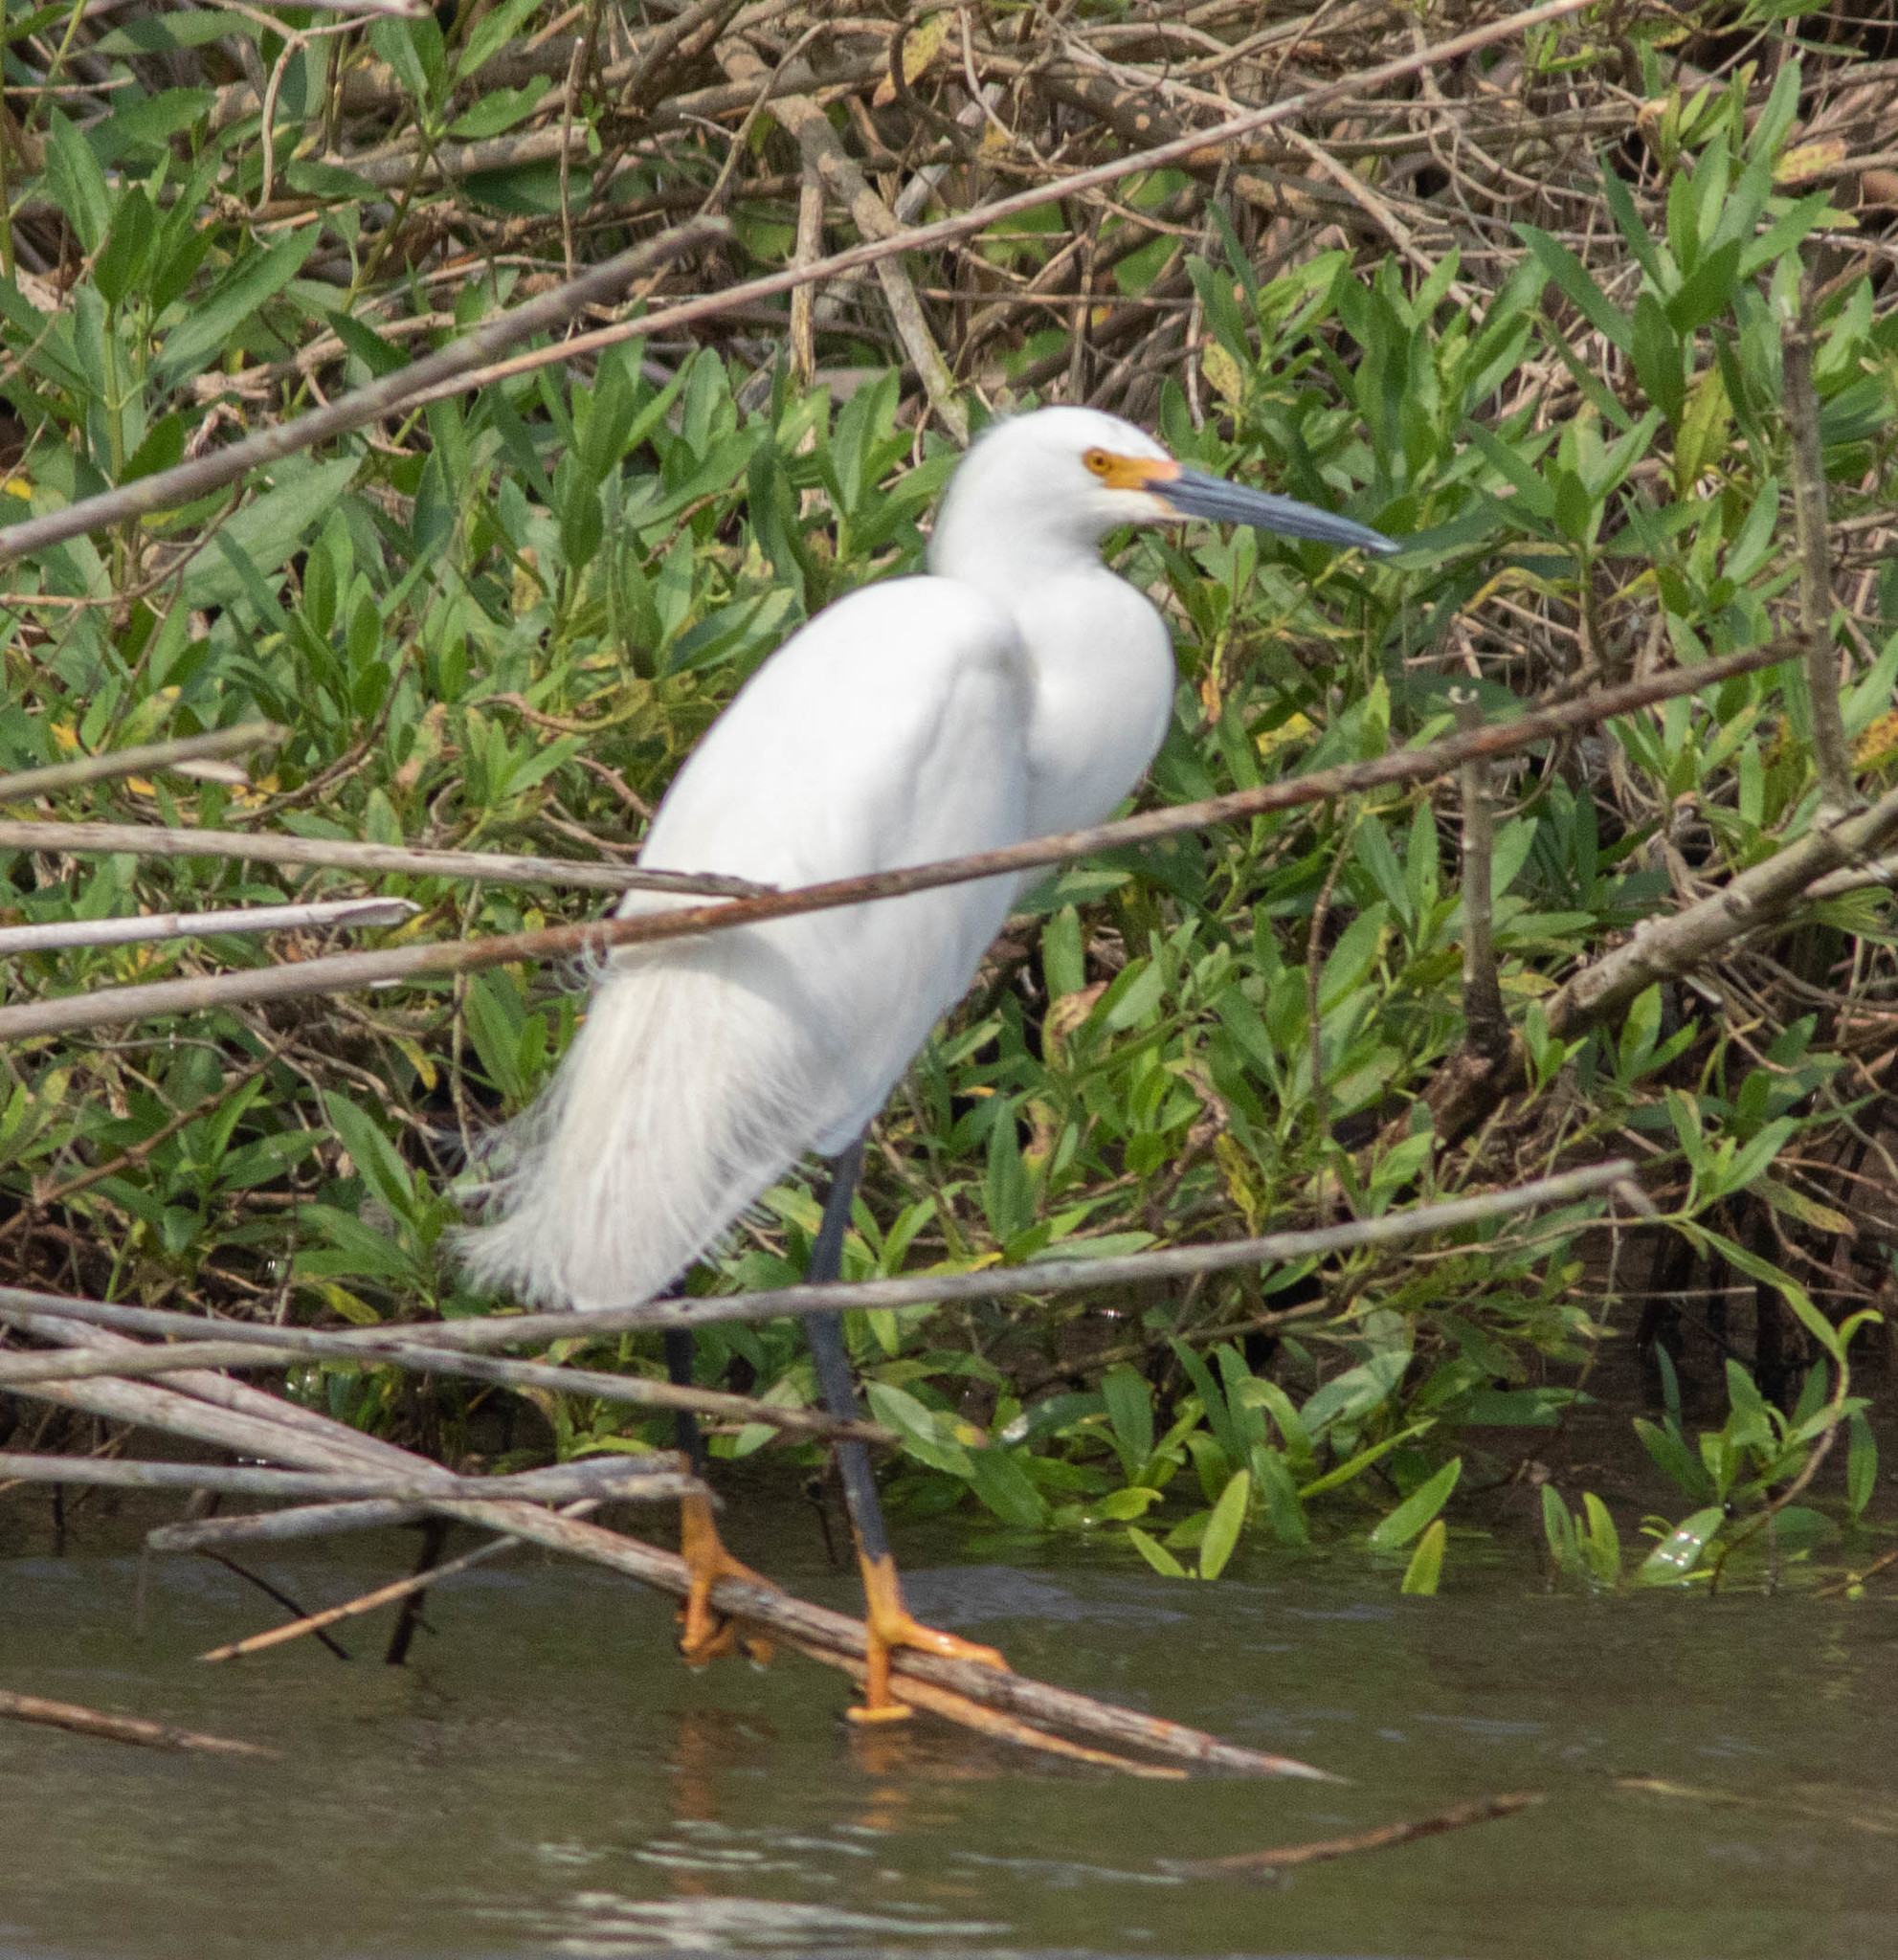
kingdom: Animalia
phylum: Chordata
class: Aves
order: Pelecaniformes
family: Ardeidae
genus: Egretta
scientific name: Egretta thula
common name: Snowy egret
